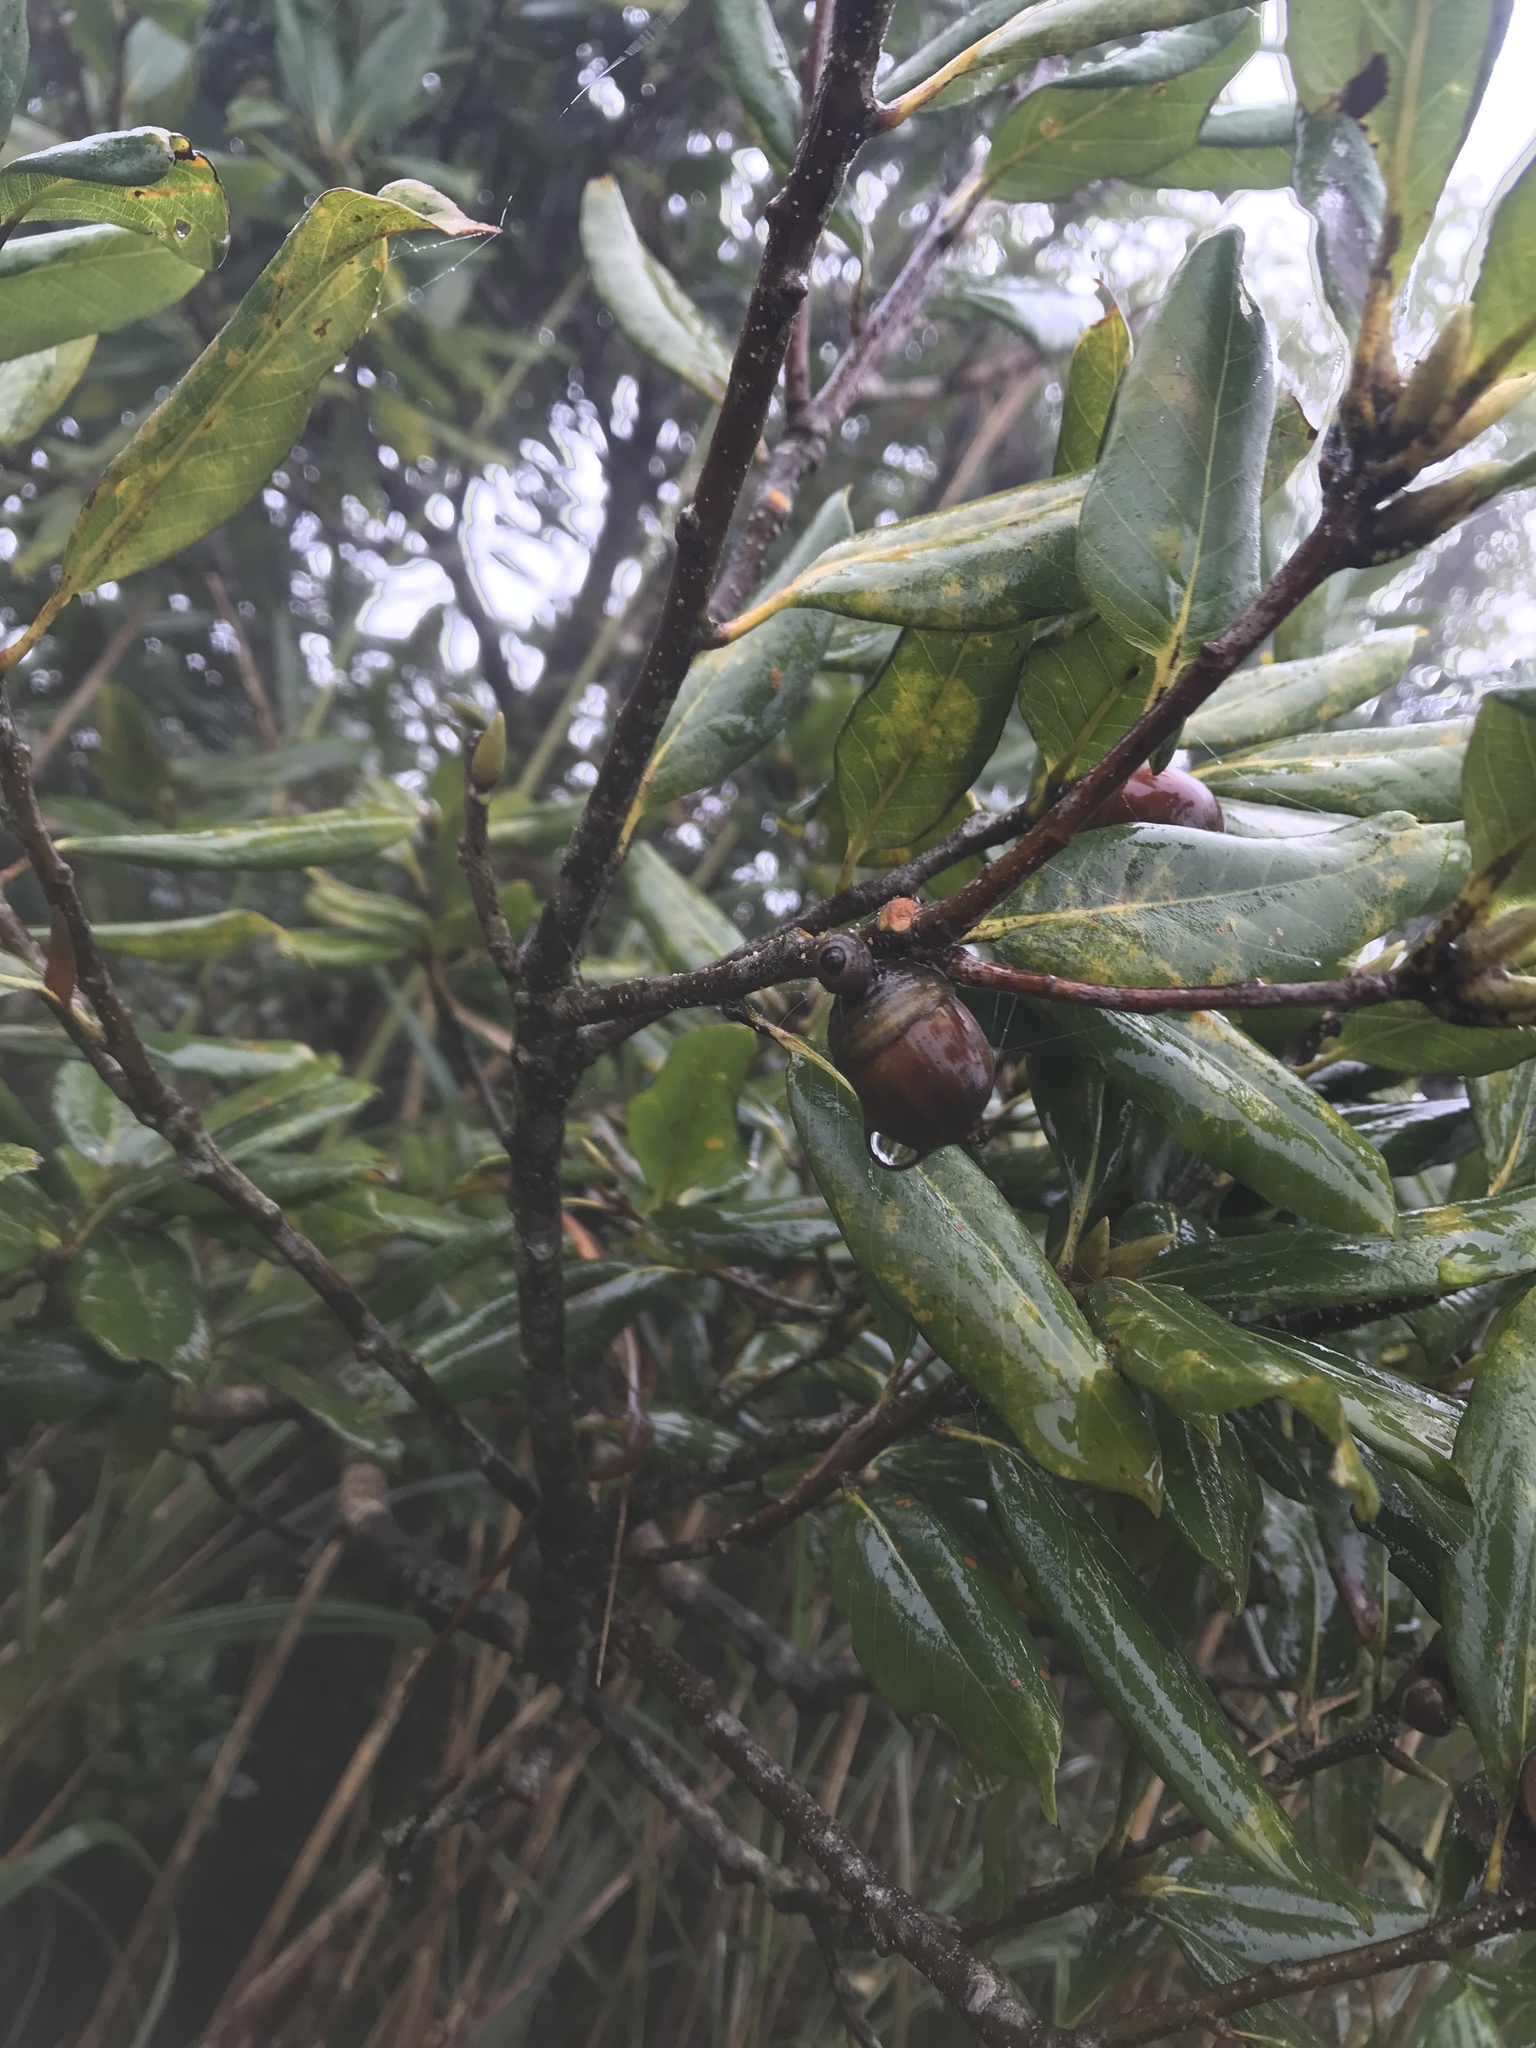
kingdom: Plantae
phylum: Tracheophyta
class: Magnoliopsida
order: Fagales
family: Fagaceae
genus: Quercus
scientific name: Quercus sessilifolia
